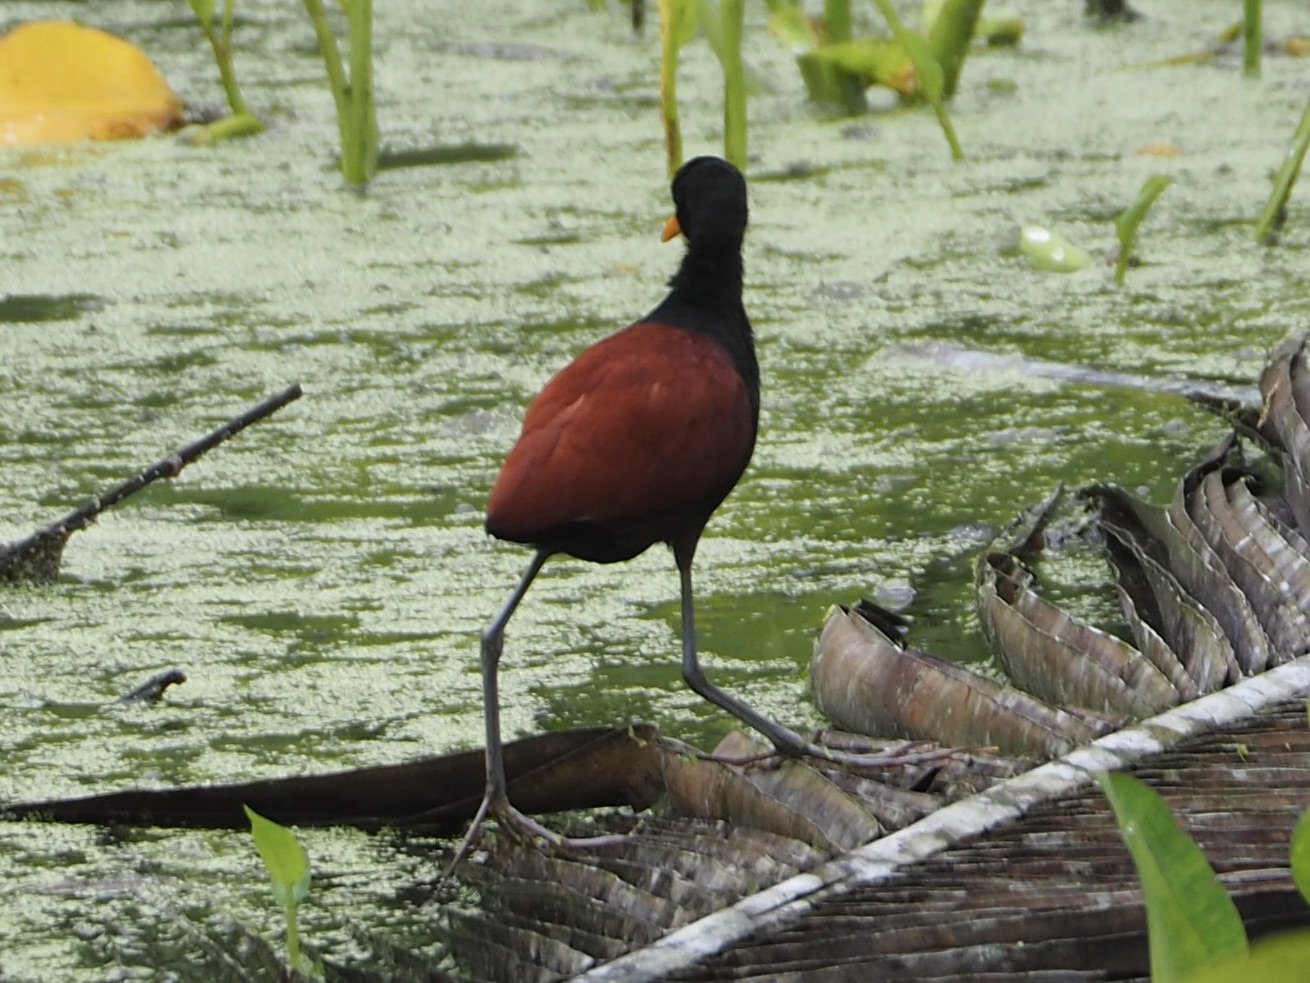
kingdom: Animalia
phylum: Chordata
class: Aves
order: Charadriiformes
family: Jacanidae
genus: Jacana
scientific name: Jacana jacana
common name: Wattled jacana
